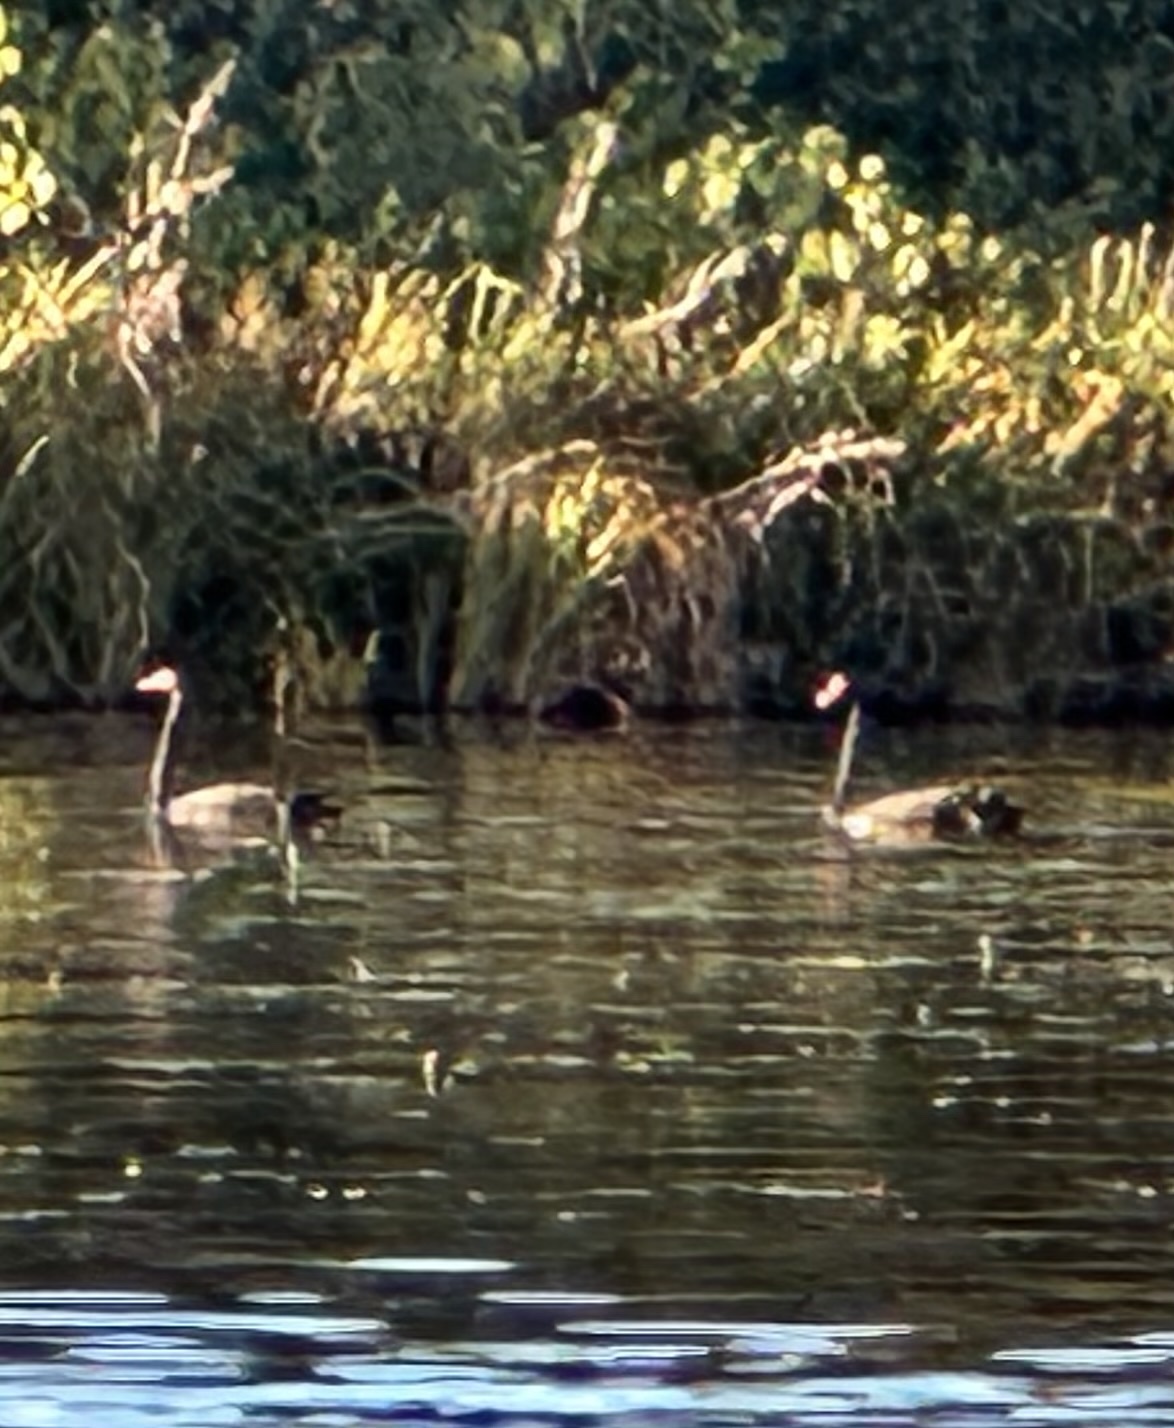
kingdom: Animalia
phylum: Chordata
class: Aves
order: Anseriformes
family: Anatidae
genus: Cygnus
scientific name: Cygnus atratus
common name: Black swan
